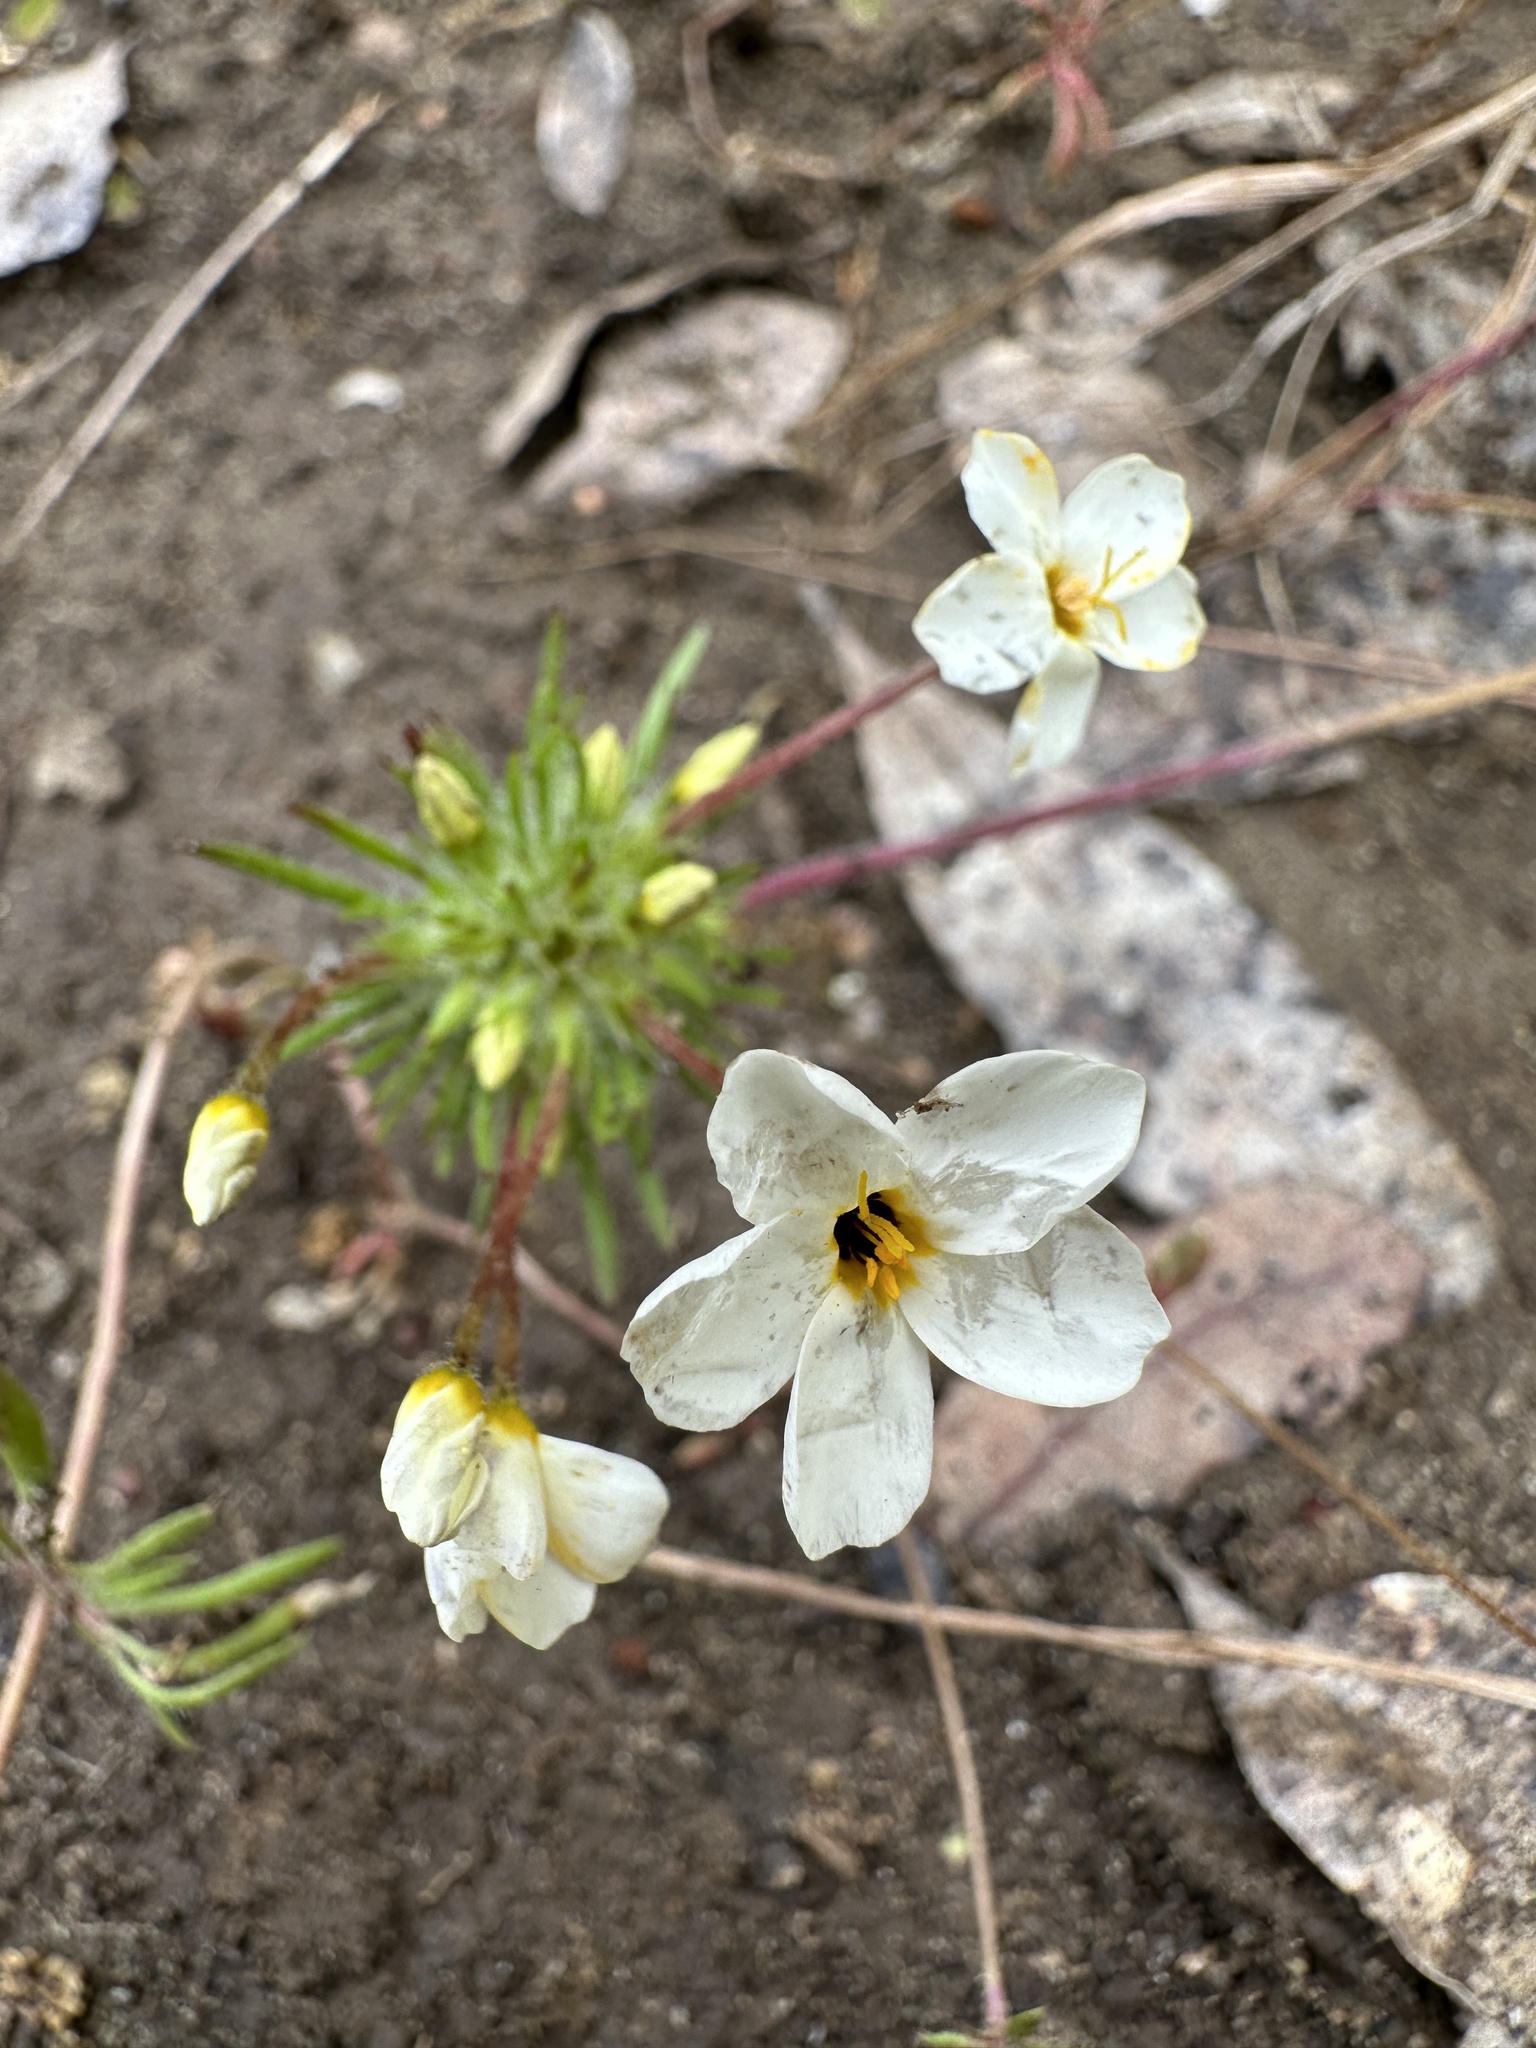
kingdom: Plantae
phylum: Tracheophyta
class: Magnoliopsida
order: Ericales
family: Polemoniaceae
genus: Leptosiphon
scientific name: Leptosiphon androsaceus
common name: False babystars
